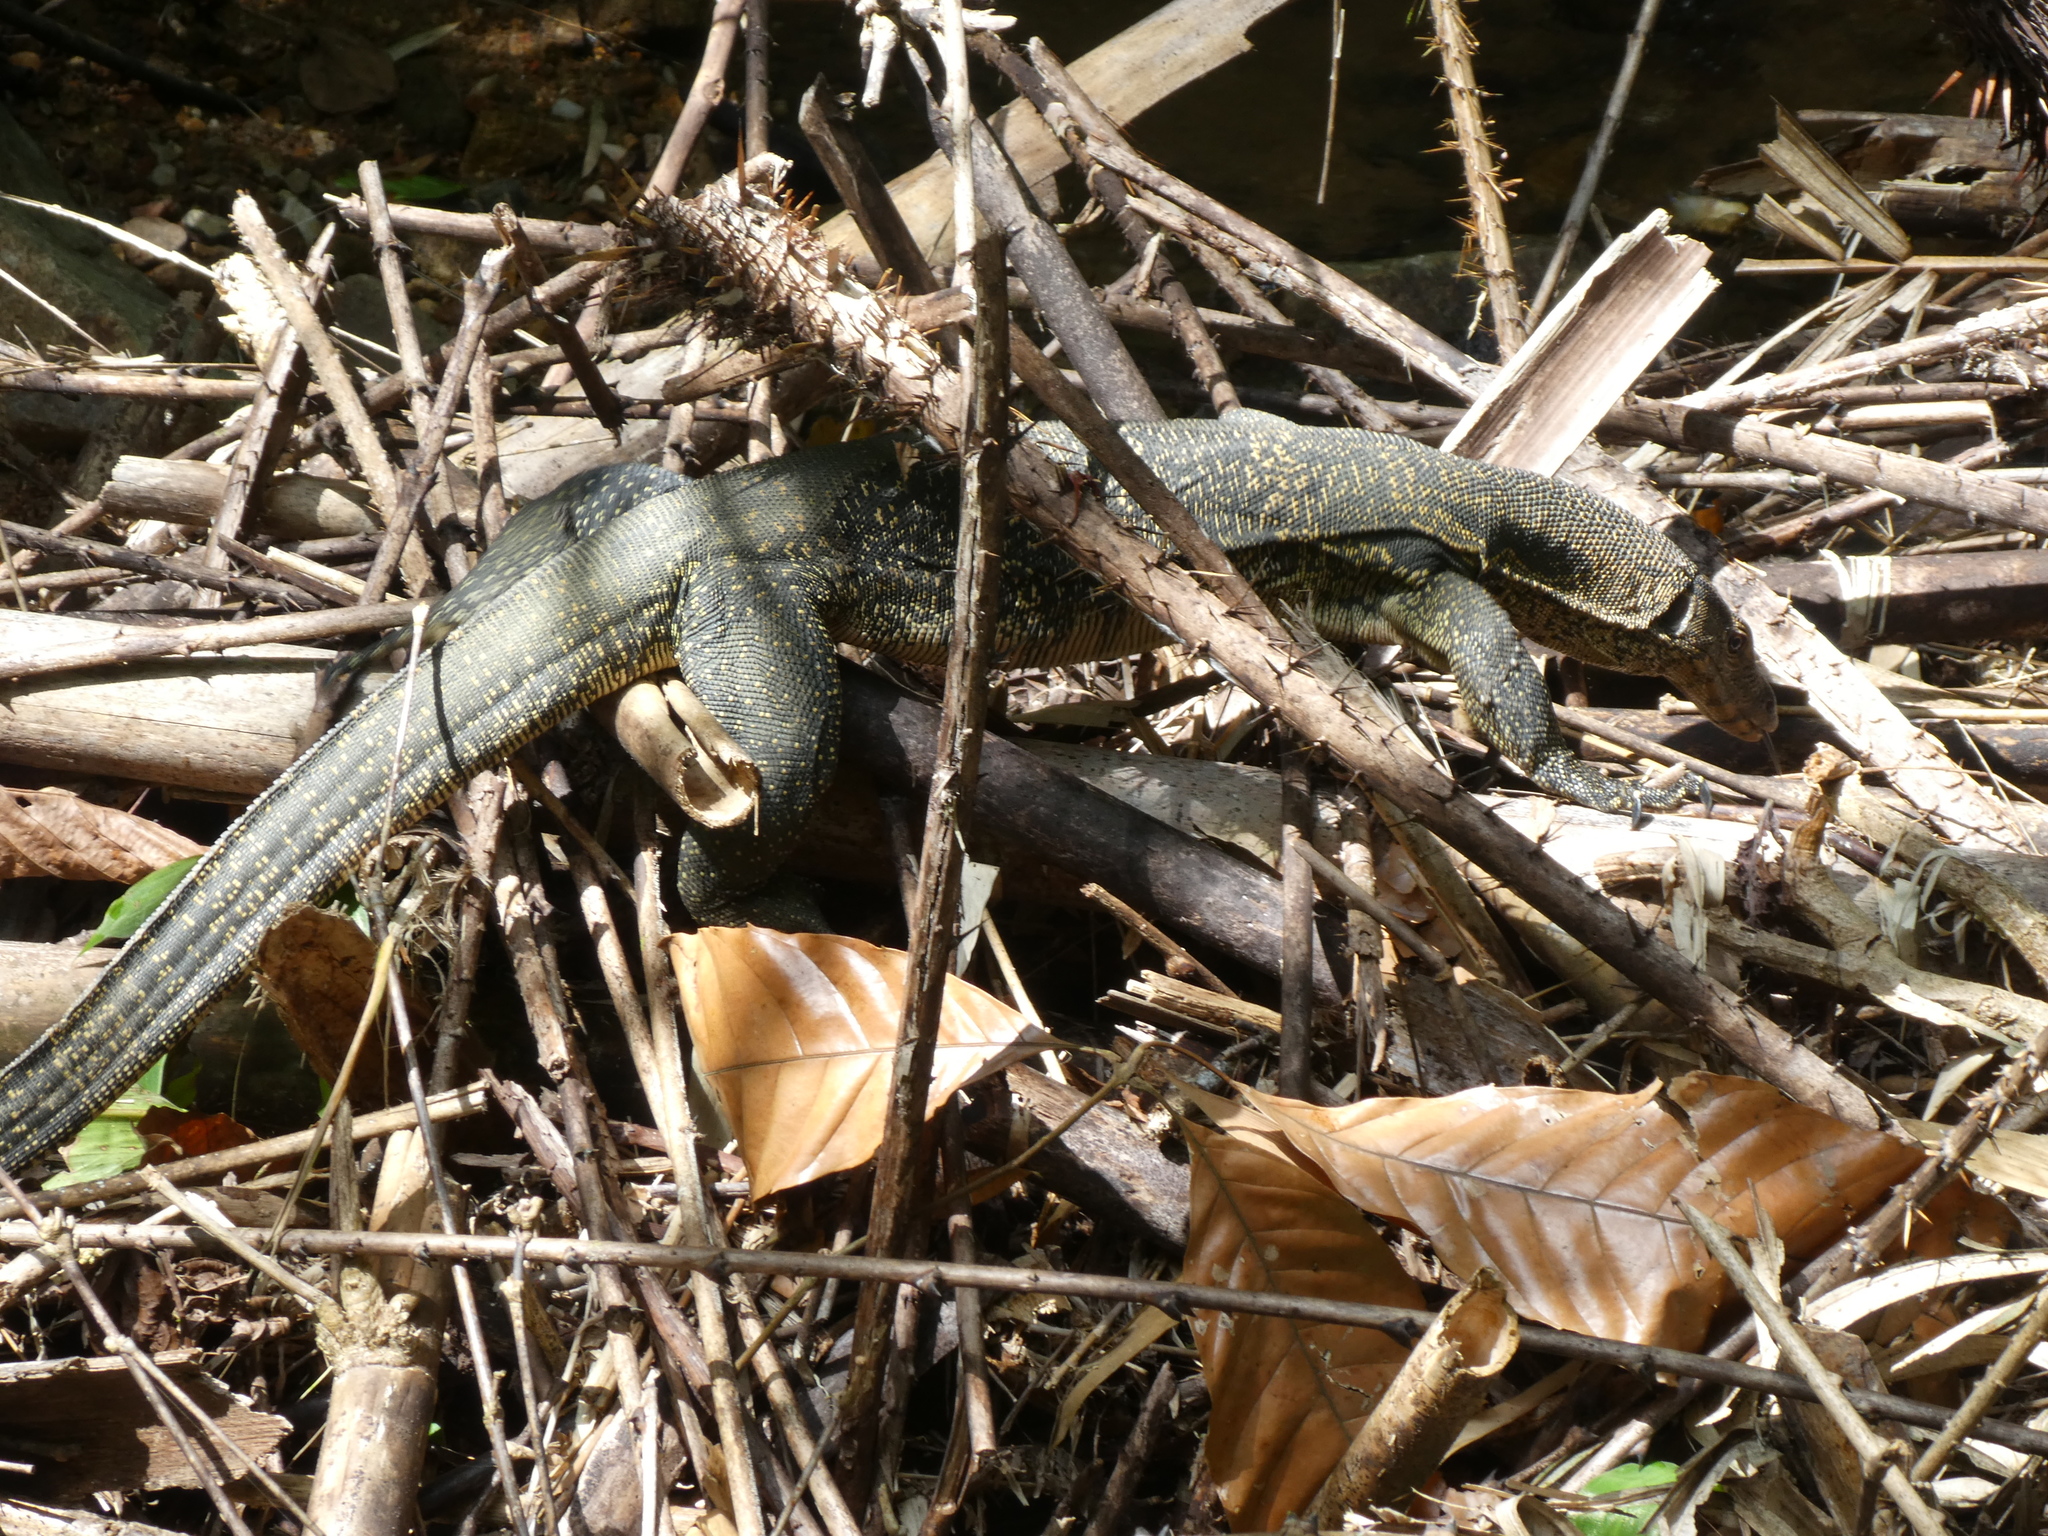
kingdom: Animalia
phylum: Chordata
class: Squamata
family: Varanidae
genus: Varanus
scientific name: Varanus salvator
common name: Common water monitor
